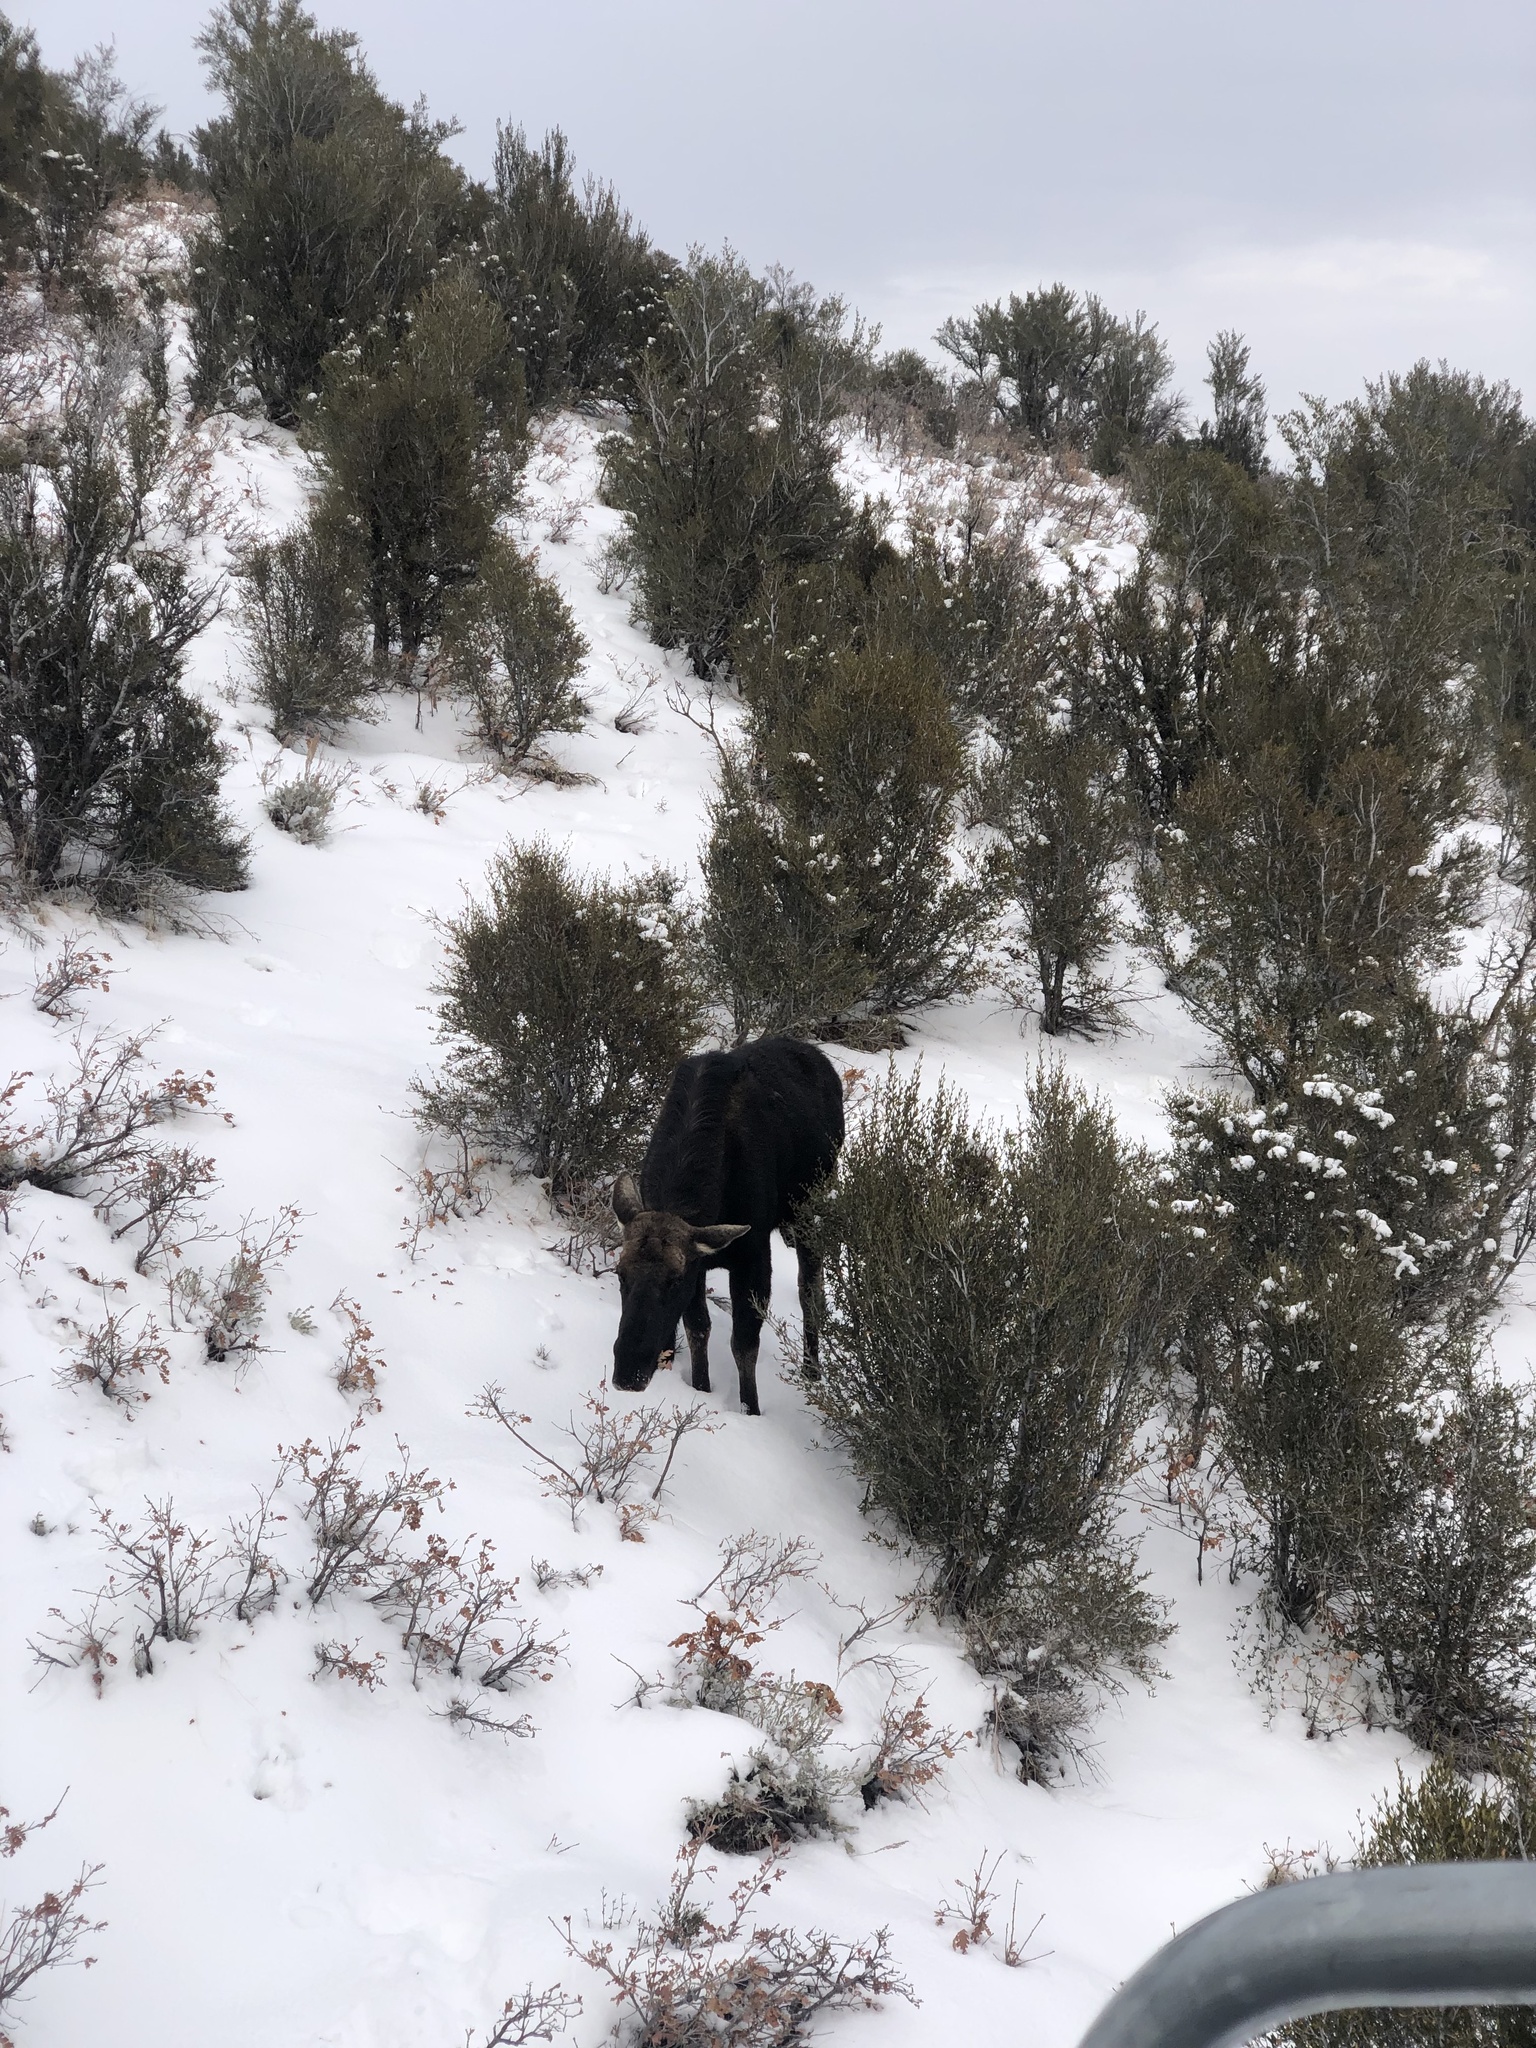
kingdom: Animalia
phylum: Chordata
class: Mammalia
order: Artiodactyla
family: Cervidae
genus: Alces
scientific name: Alces americanus
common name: Moose
